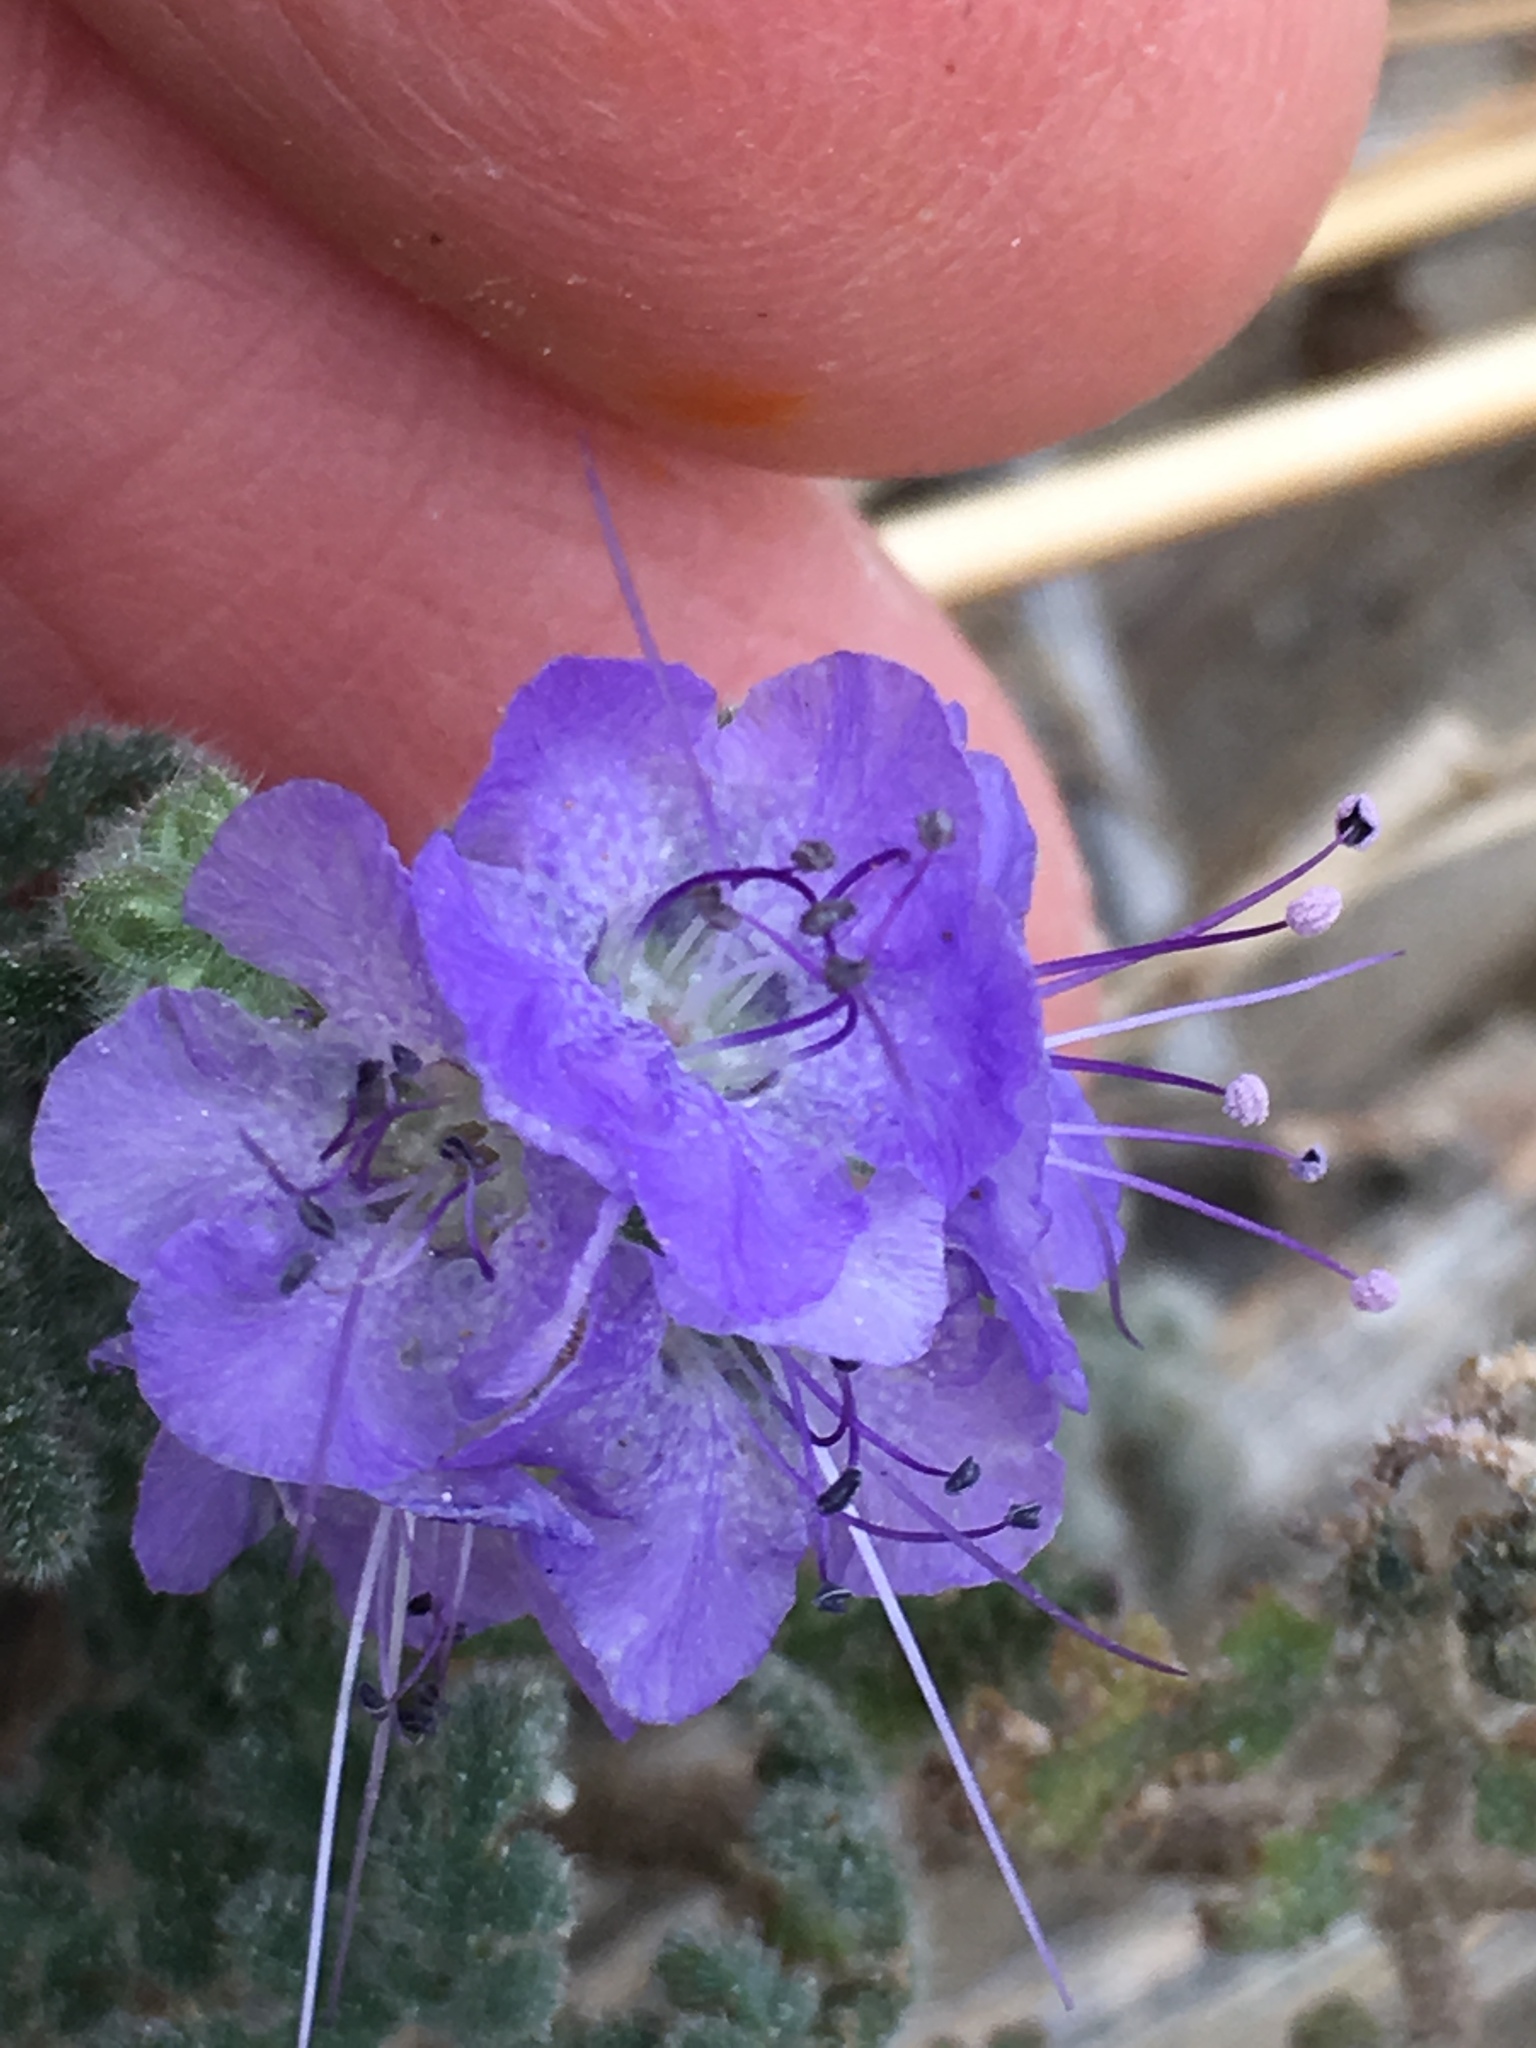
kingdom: Plantae
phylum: Tracheophyta
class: Magnoliopsida
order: Boraginales
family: Hydrophyllaceae
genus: Phacelia
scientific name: Phacelia distans
